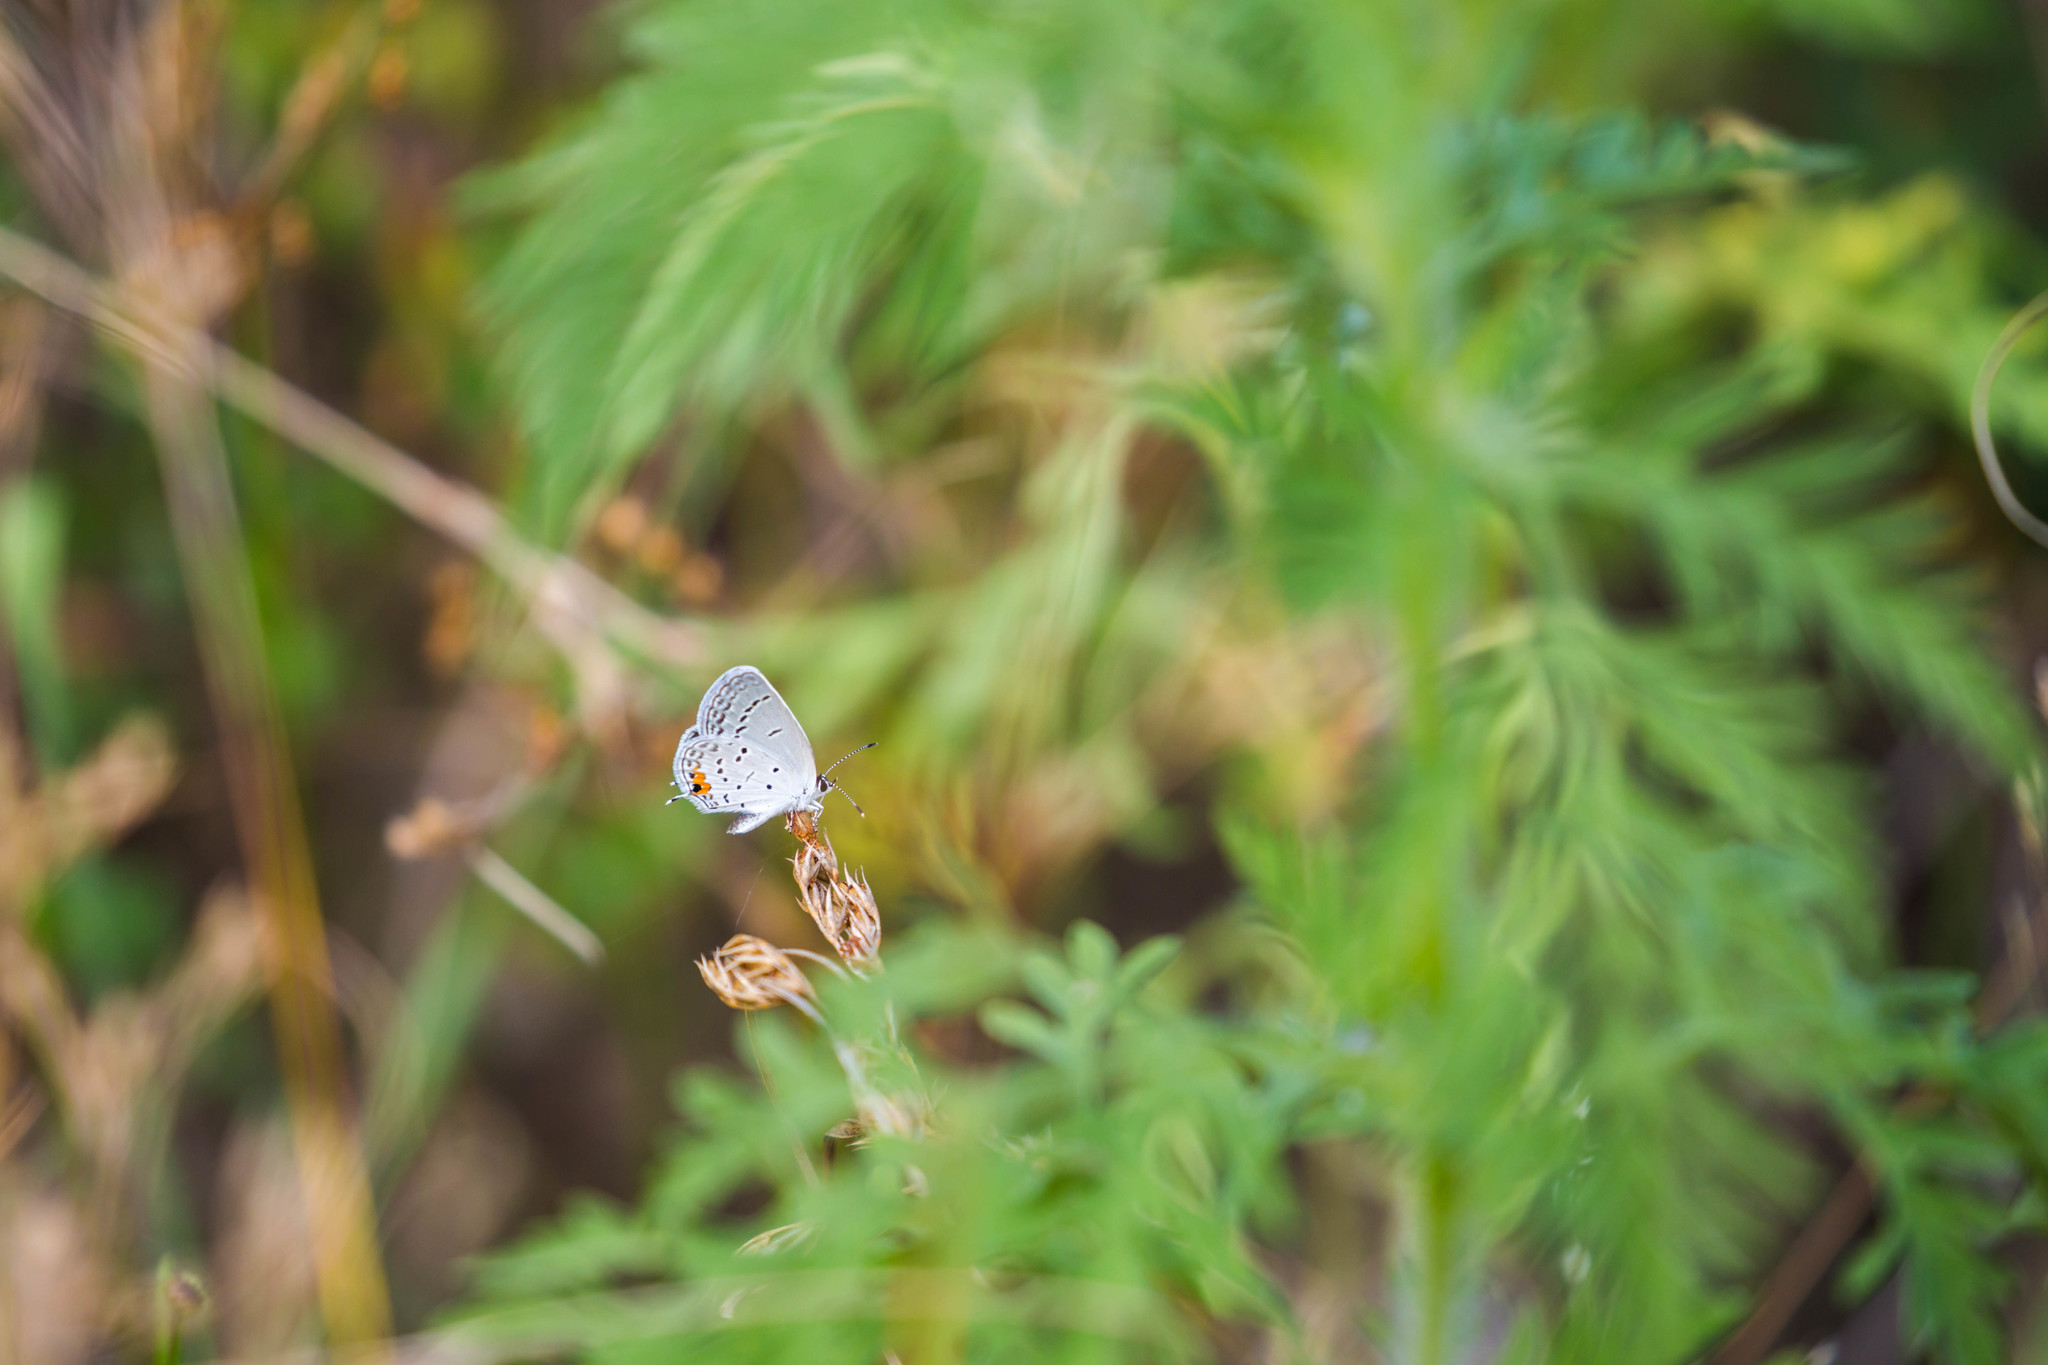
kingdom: Animalia
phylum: Arthropoda
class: Insecta
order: Lepidoptera
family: Lycaenidae
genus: Elkalyce
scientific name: Elkalyce comyntas
